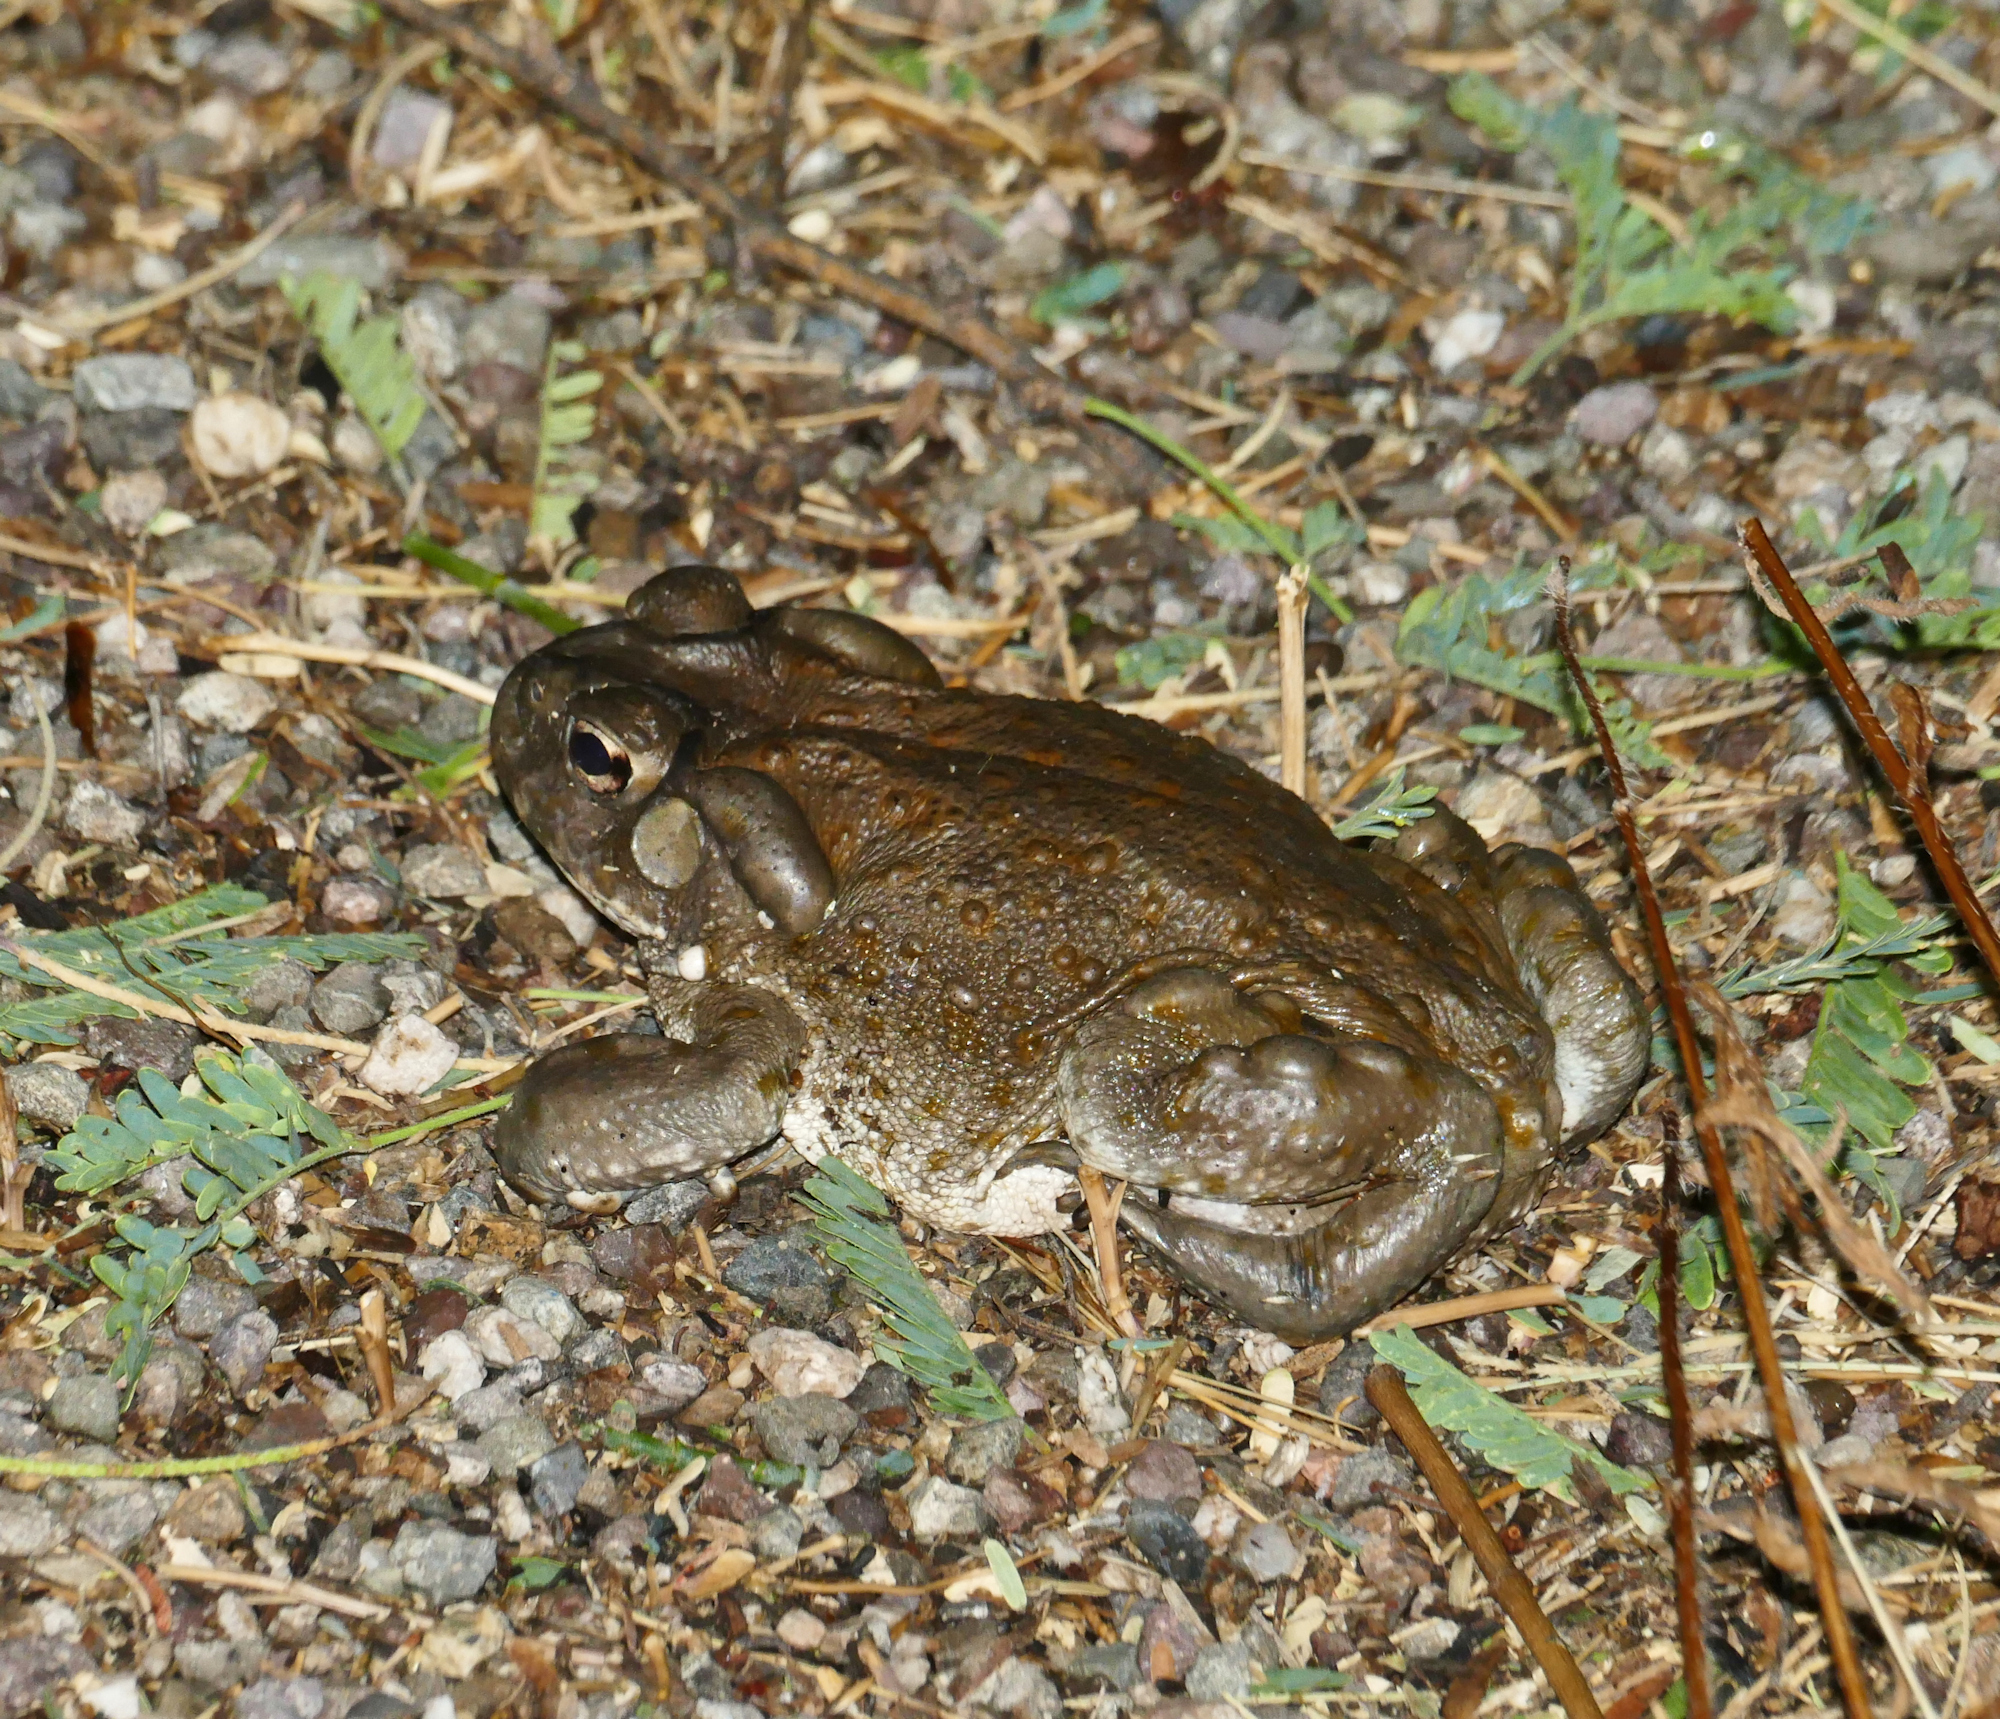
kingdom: Animalia
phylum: Chordata
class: Amphibia
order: Anura
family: Bufonidae
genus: Incilius
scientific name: Incilius alvarius
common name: Sonoran desert toad
